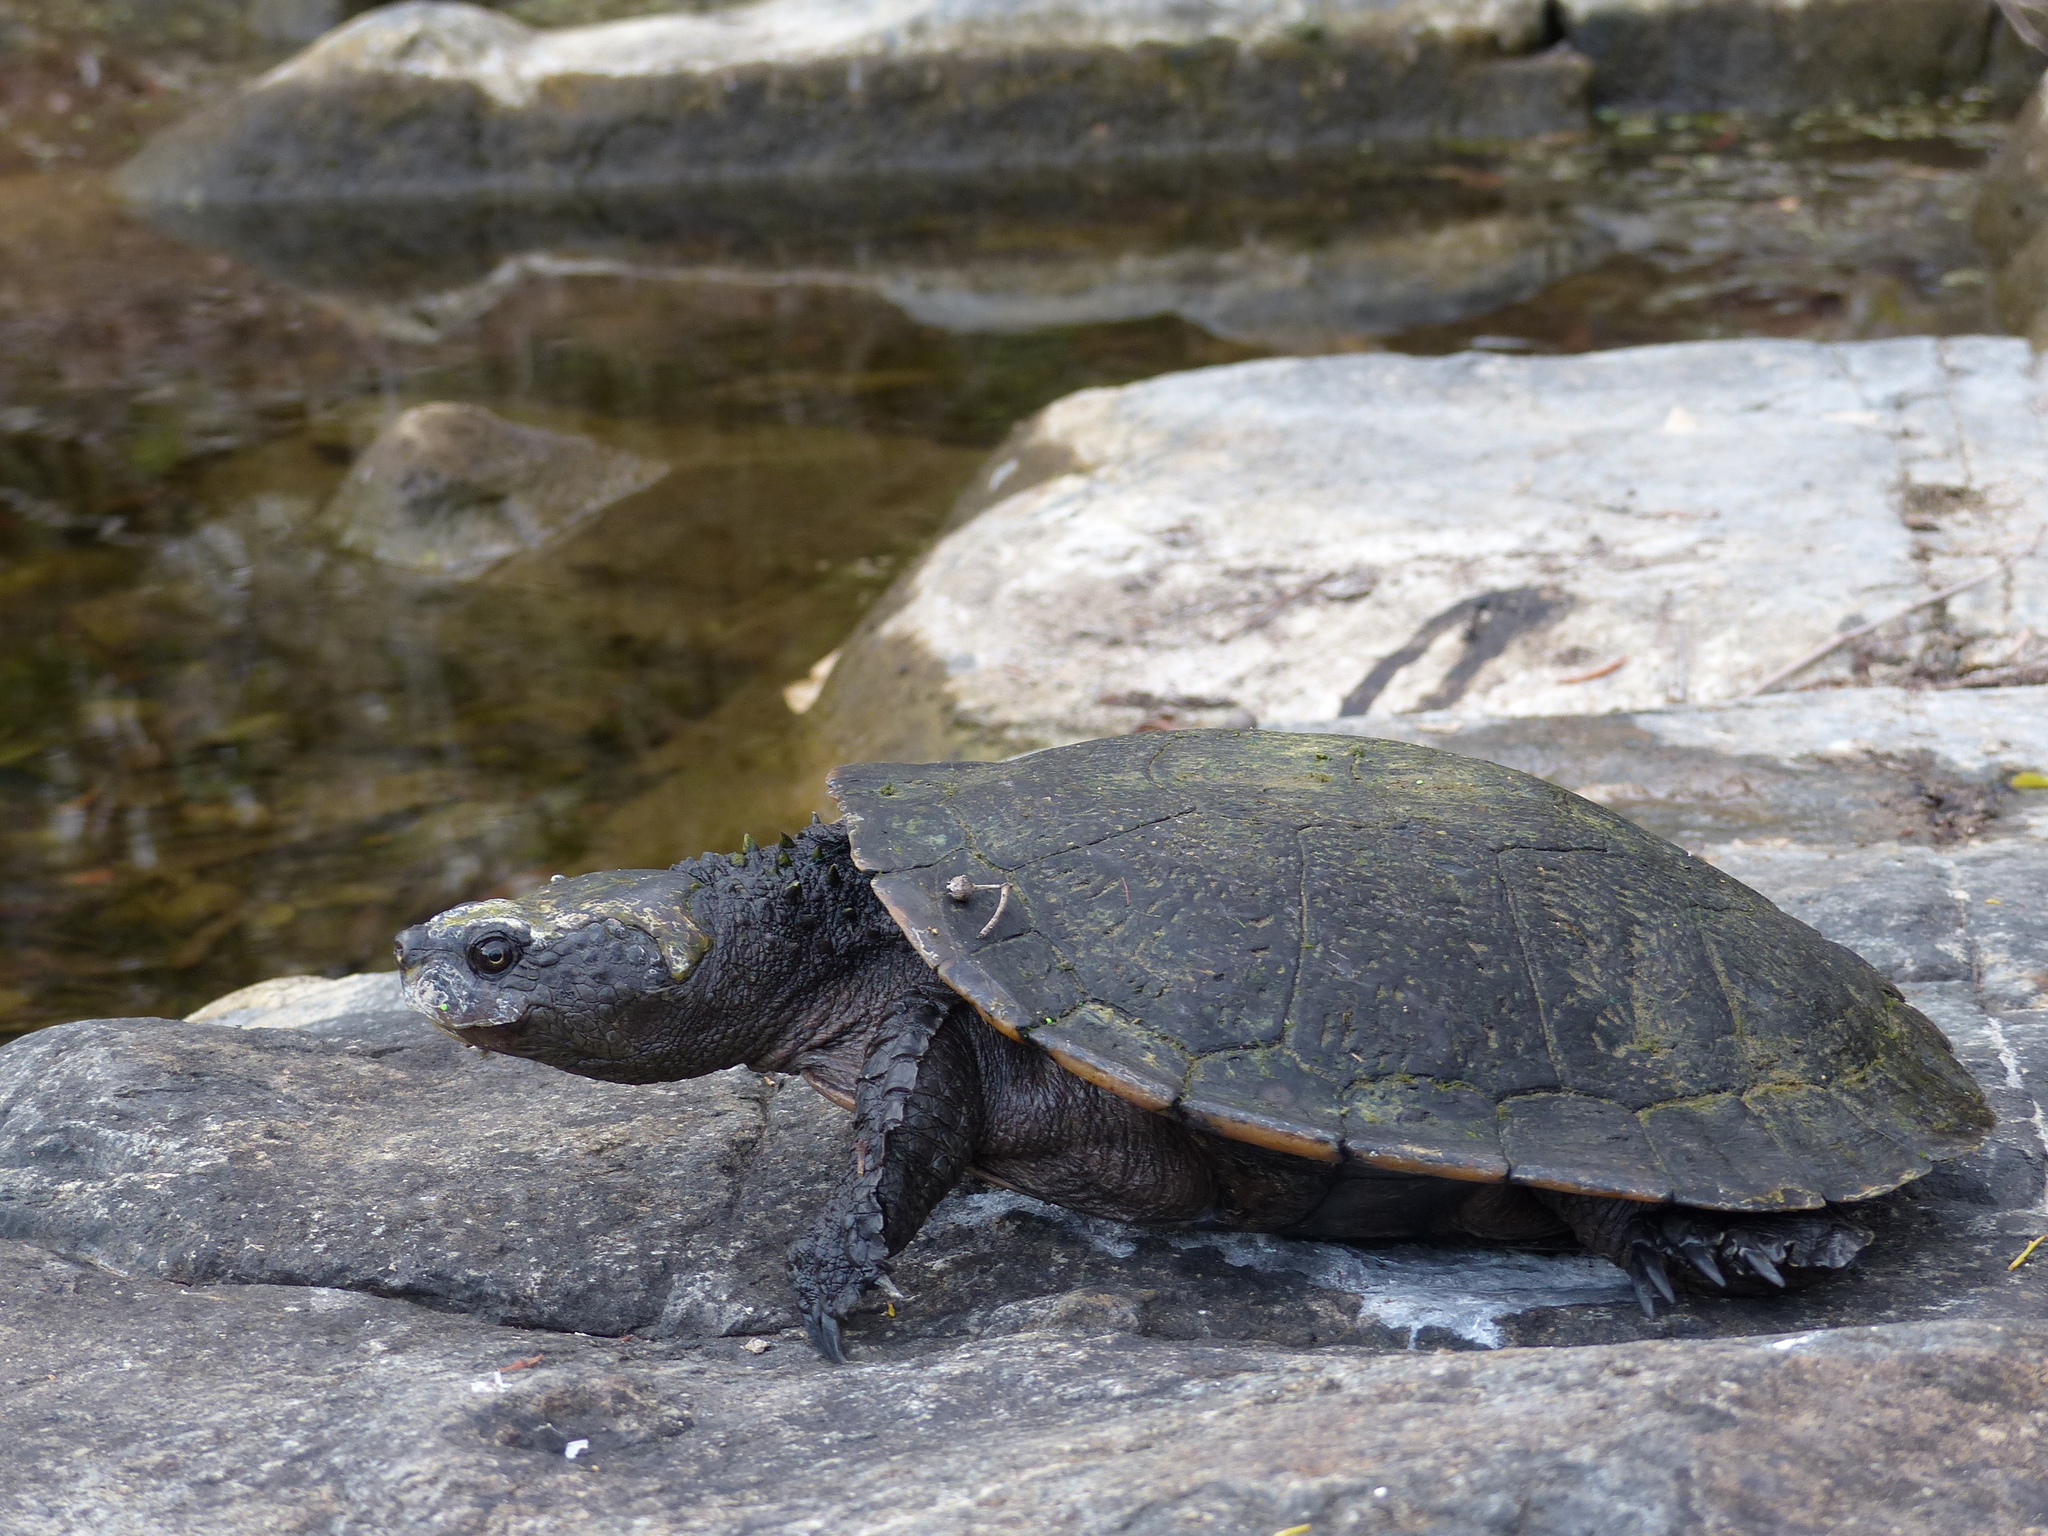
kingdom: Animalia
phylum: Chordata
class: Testudines
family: Chelidae
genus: Myuchelys
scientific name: Myuchelys latisternum
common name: Serrated snapping turtle
